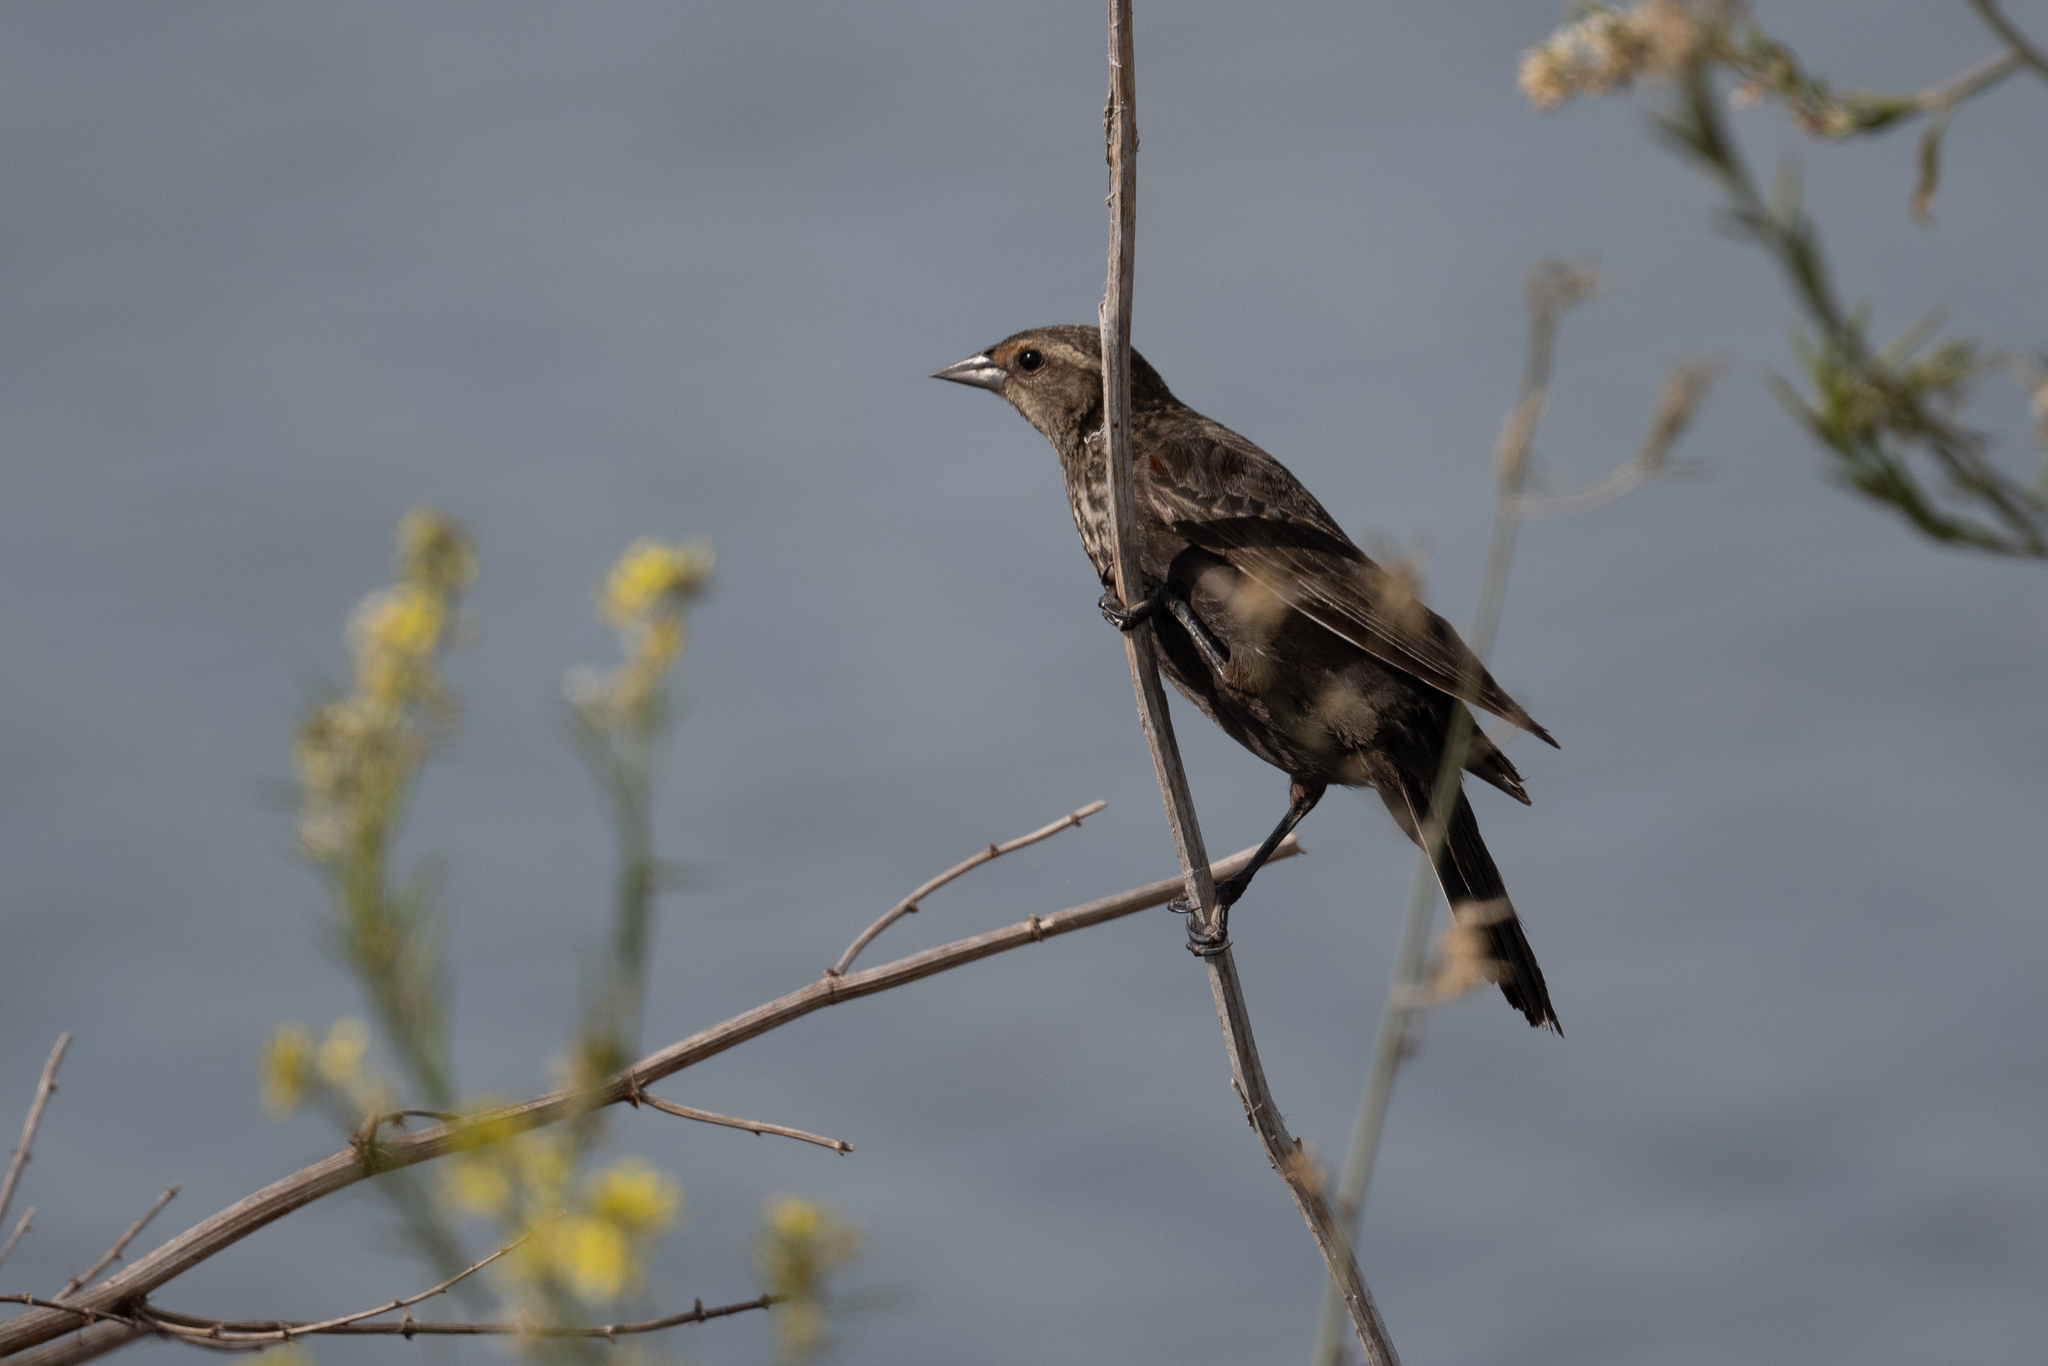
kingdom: Animalia
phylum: Chordata
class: Aves
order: Passeriformes
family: Icteridae
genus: Agelaius
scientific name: Agelaius phoeniceus
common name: Red-winged blackbird
